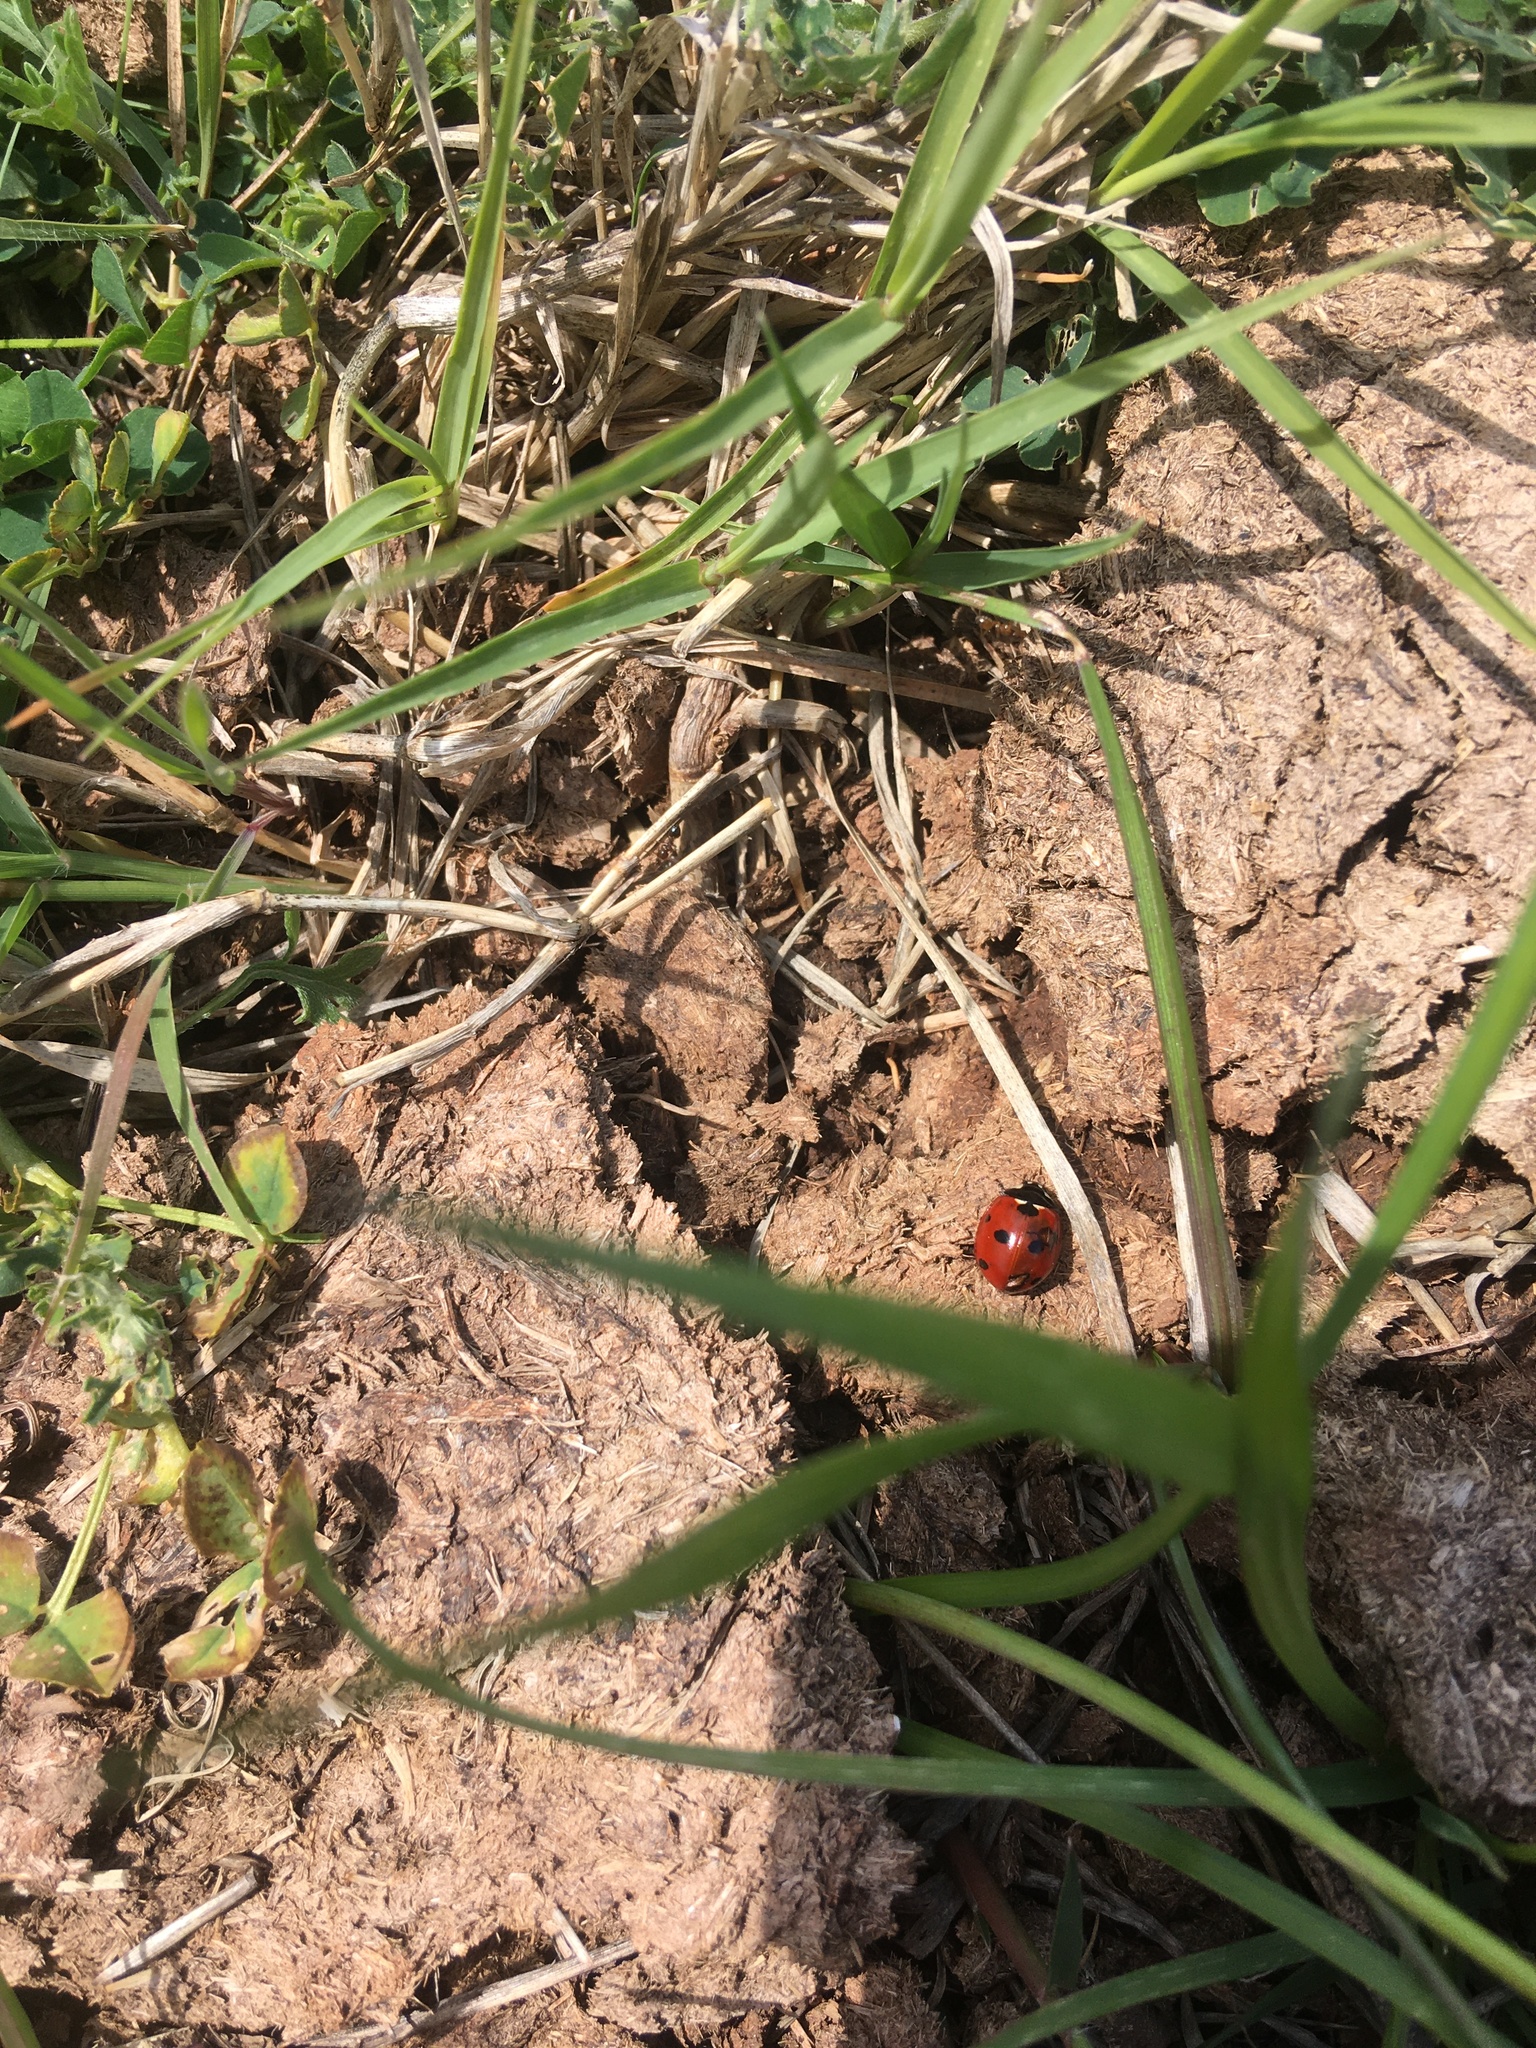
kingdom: Animalia
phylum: Arthropoda
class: Insecta
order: Coleoptera
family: Coccinellidae
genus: Coccinella
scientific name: Coccinella septempunctata
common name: Sevenspotted lady beetle
